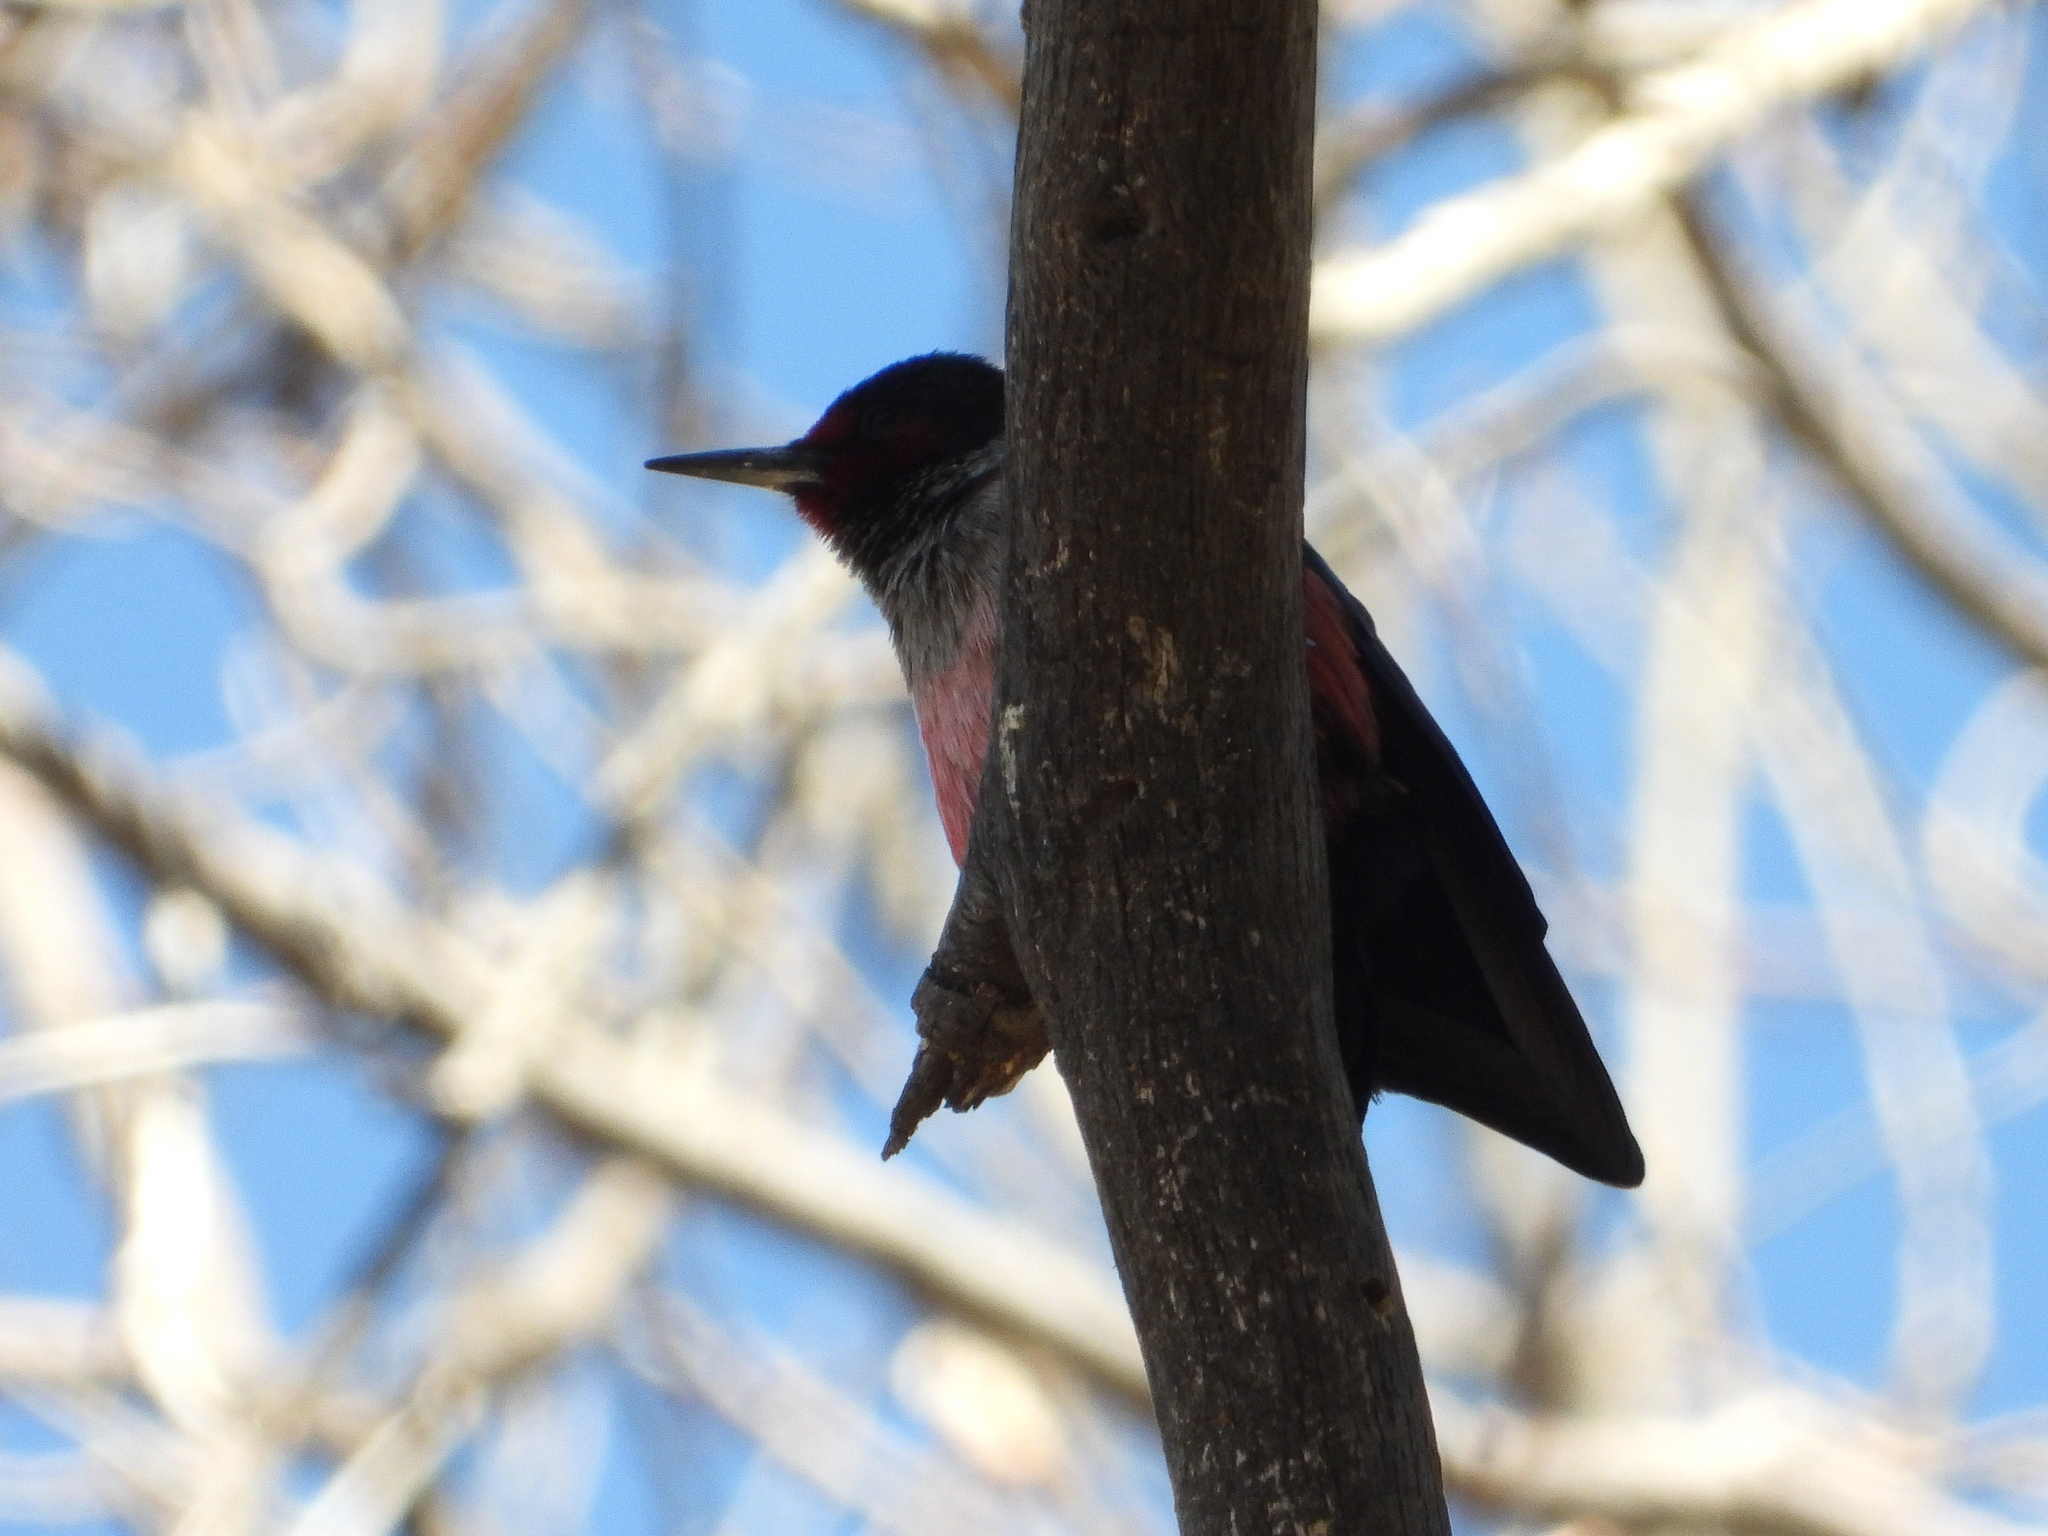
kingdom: Animalia
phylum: Chordata
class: Aves
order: Piciformes
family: Picidae
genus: Melanerpes
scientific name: Melanerpes lewis
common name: Lewis's woodpecker
